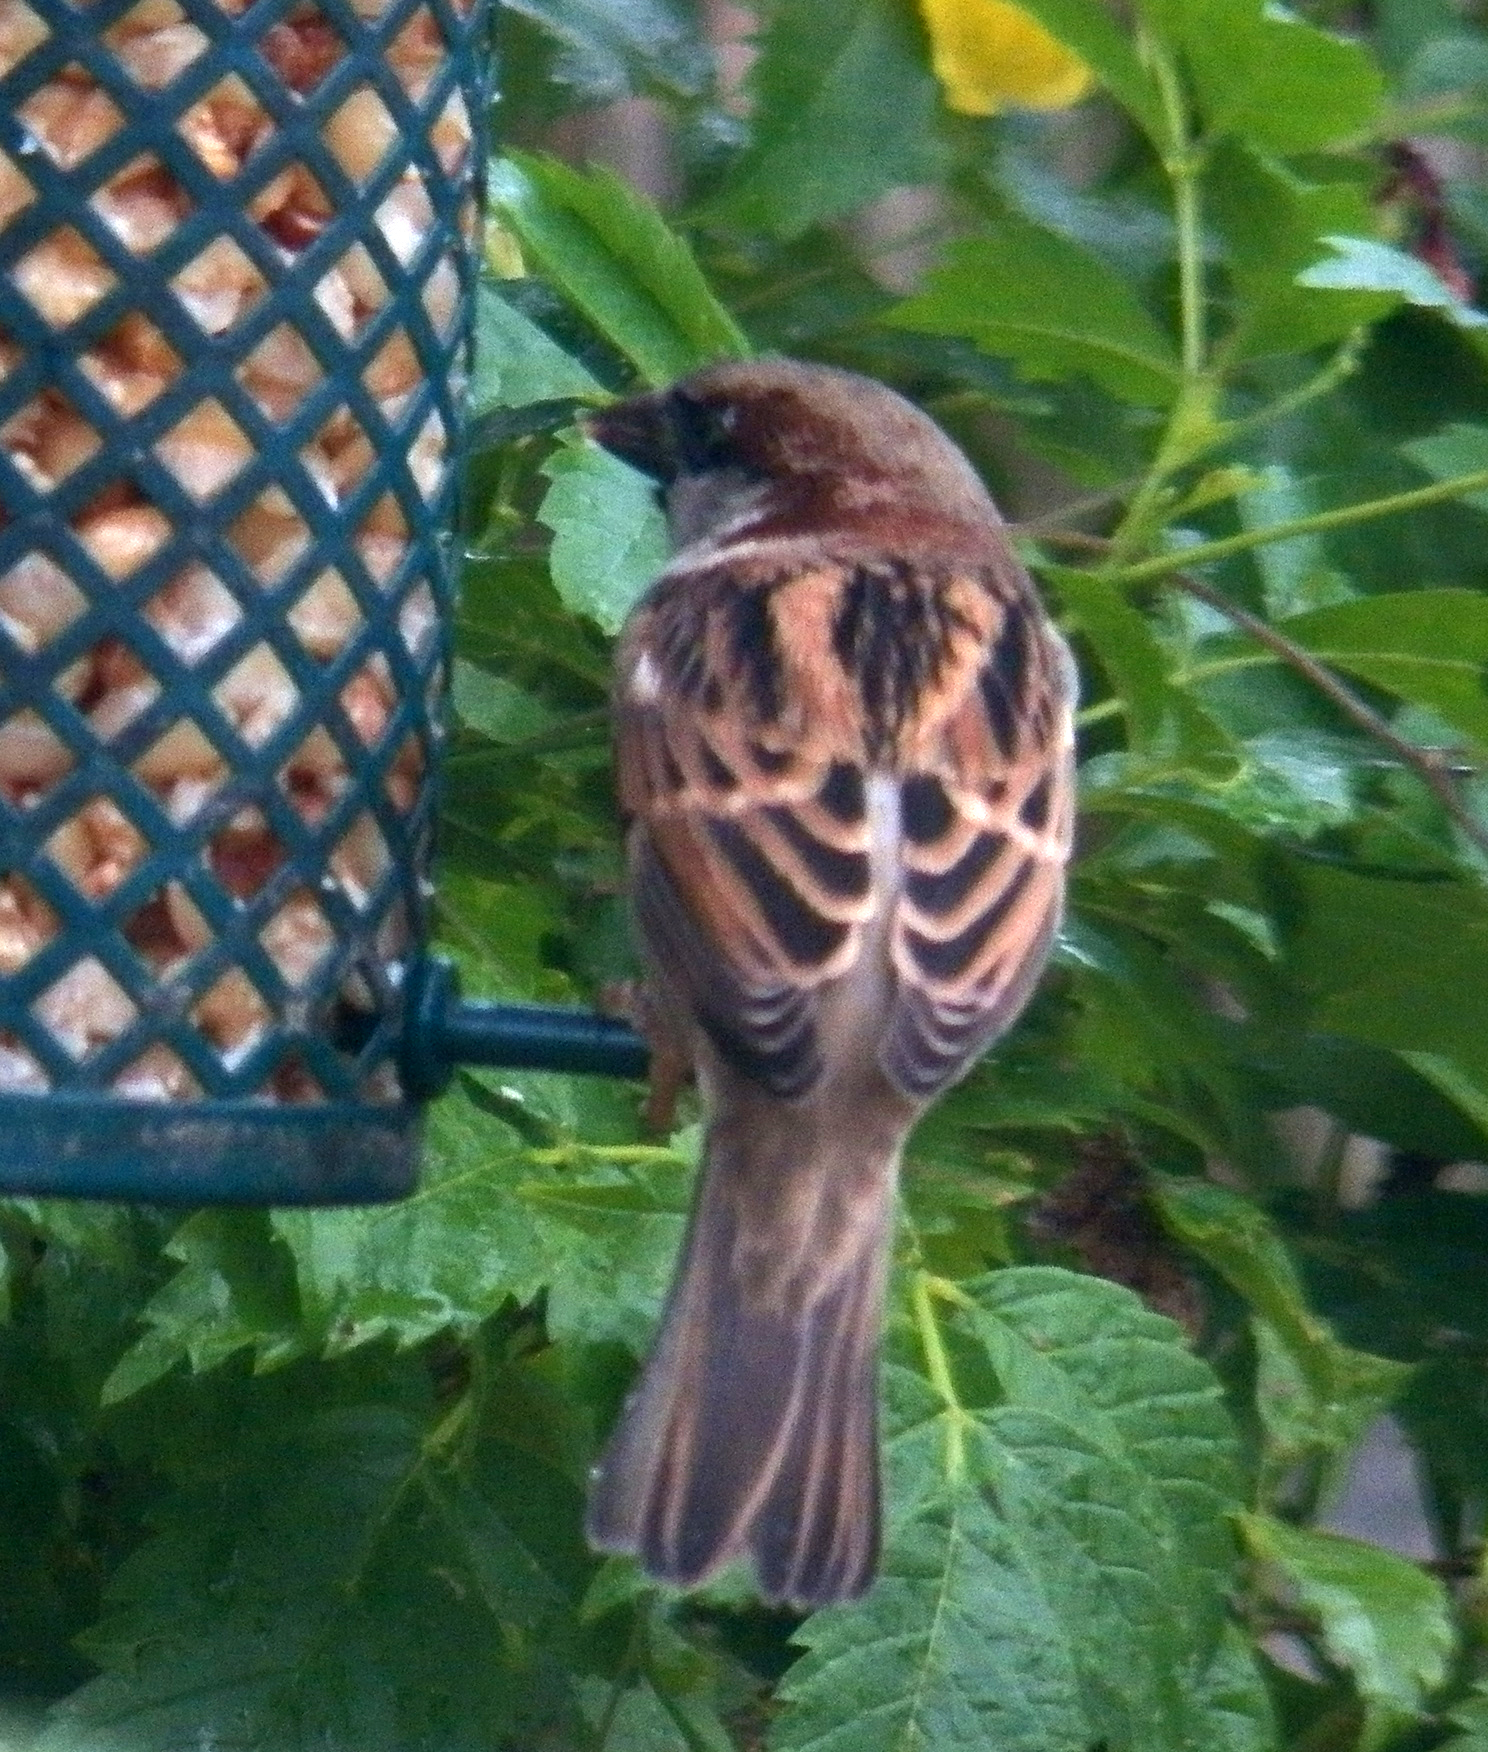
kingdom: Animalia
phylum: Chordata
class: Aves
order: Passeriformes
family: Passeridae
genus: Passer
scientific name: Passer domesticus
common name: House sparrow
